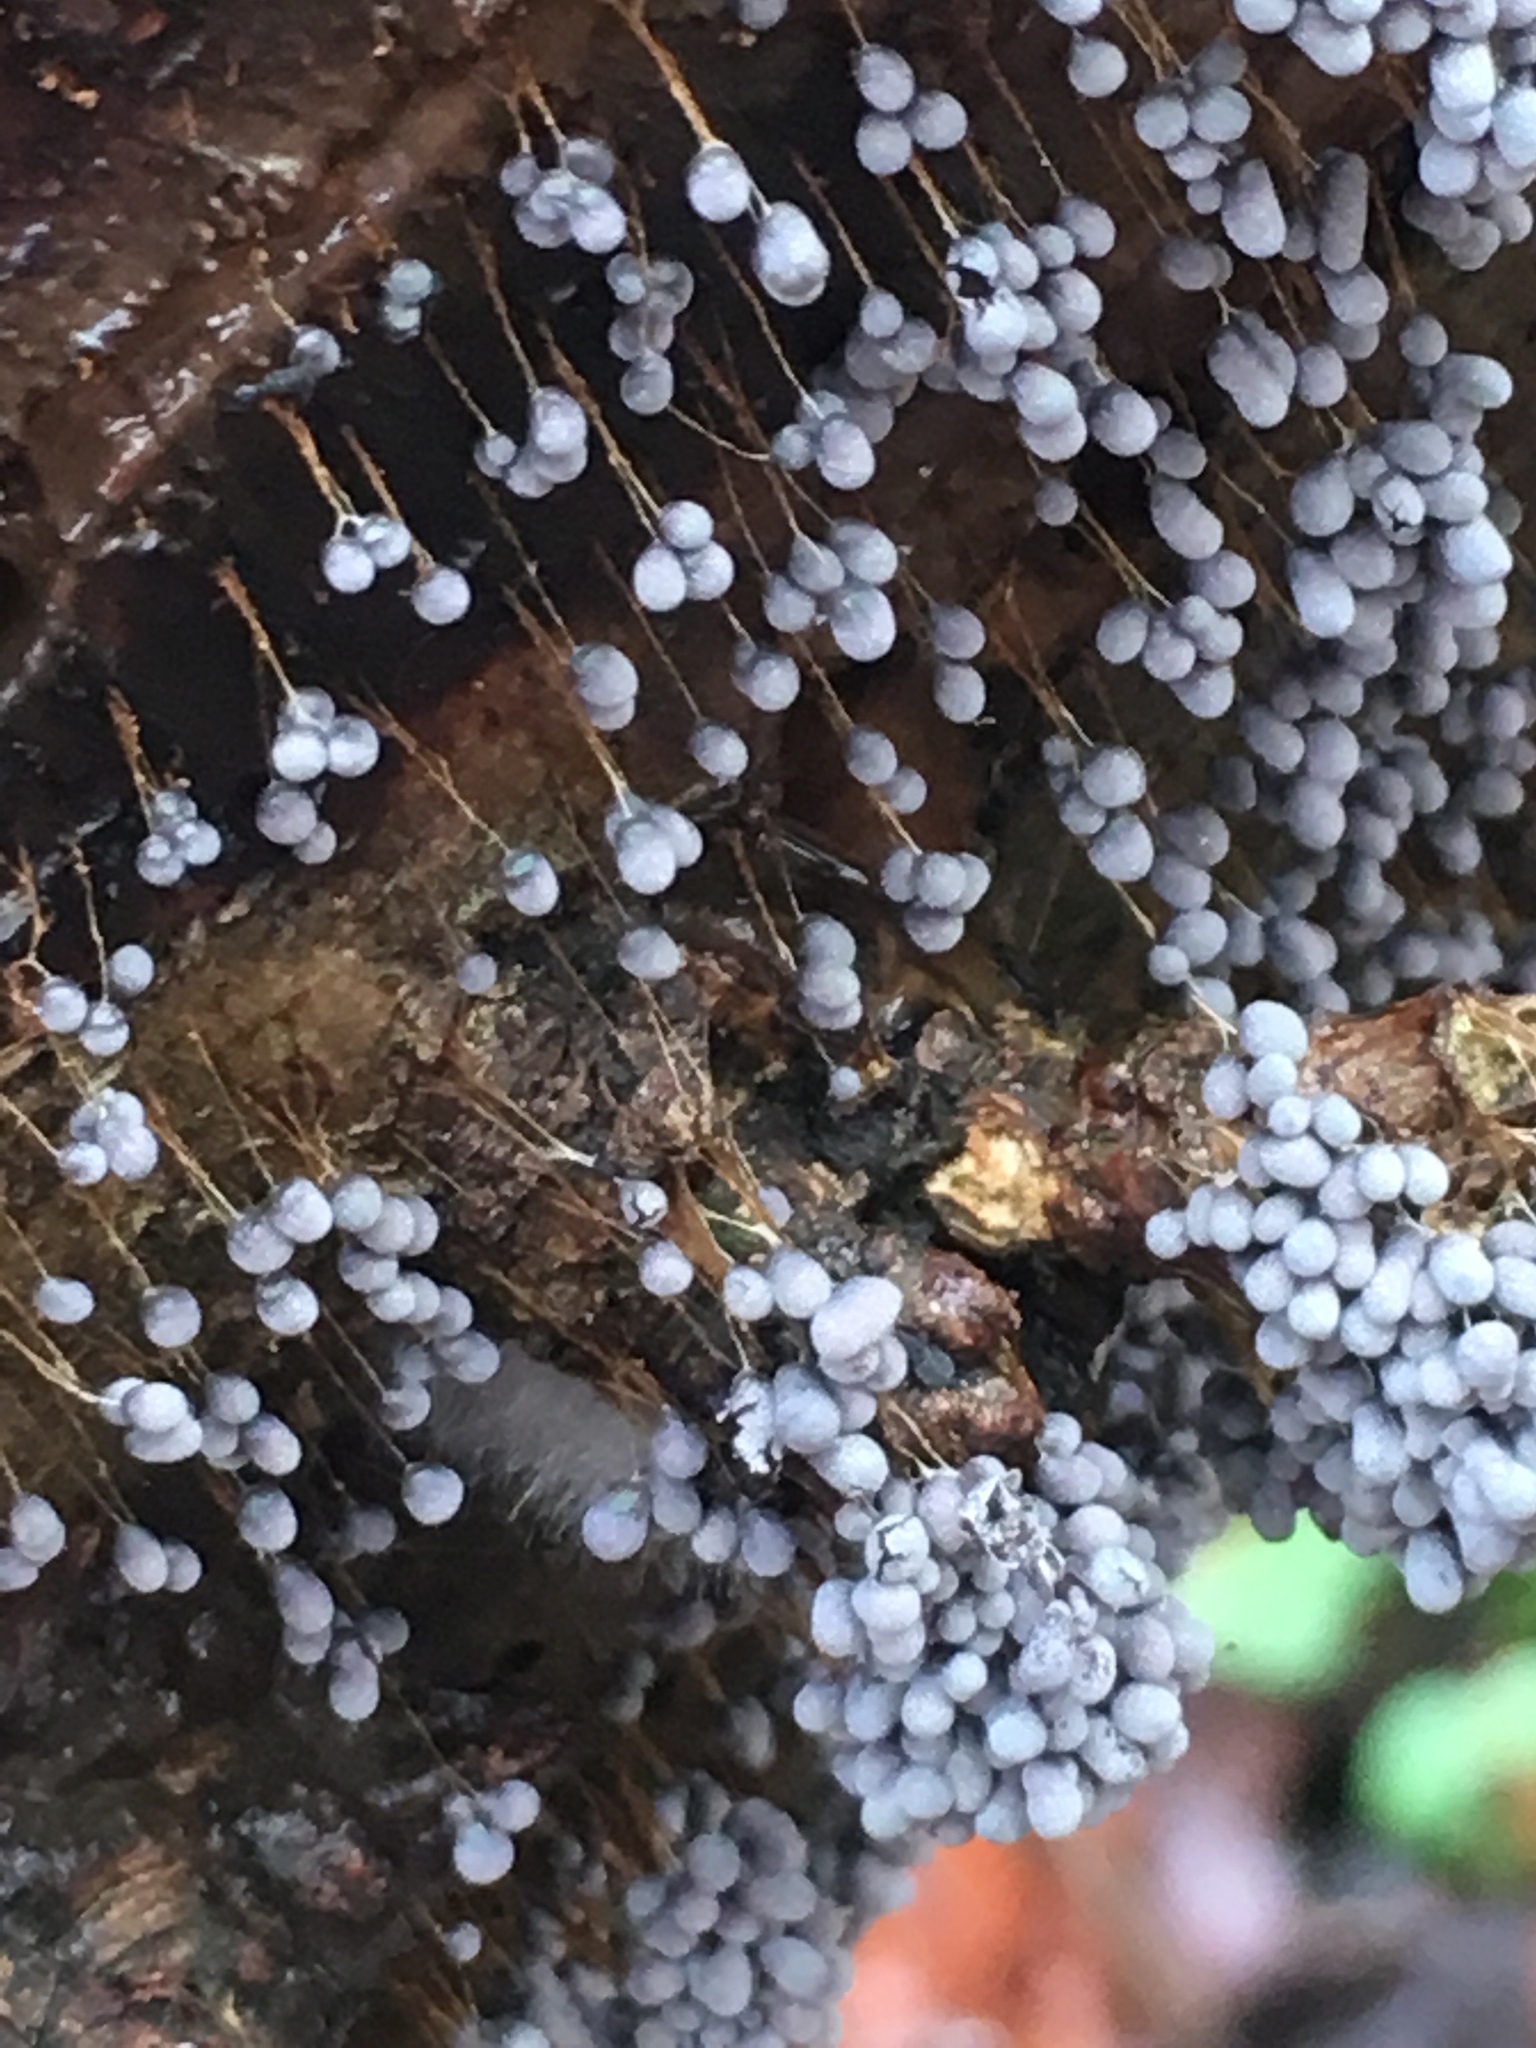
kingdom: Protozoa
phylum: Mycetozoa
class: Myxomycetes
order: Physarales
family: Physaraceae
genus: Badhamia
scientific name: Badhamia utricularis
